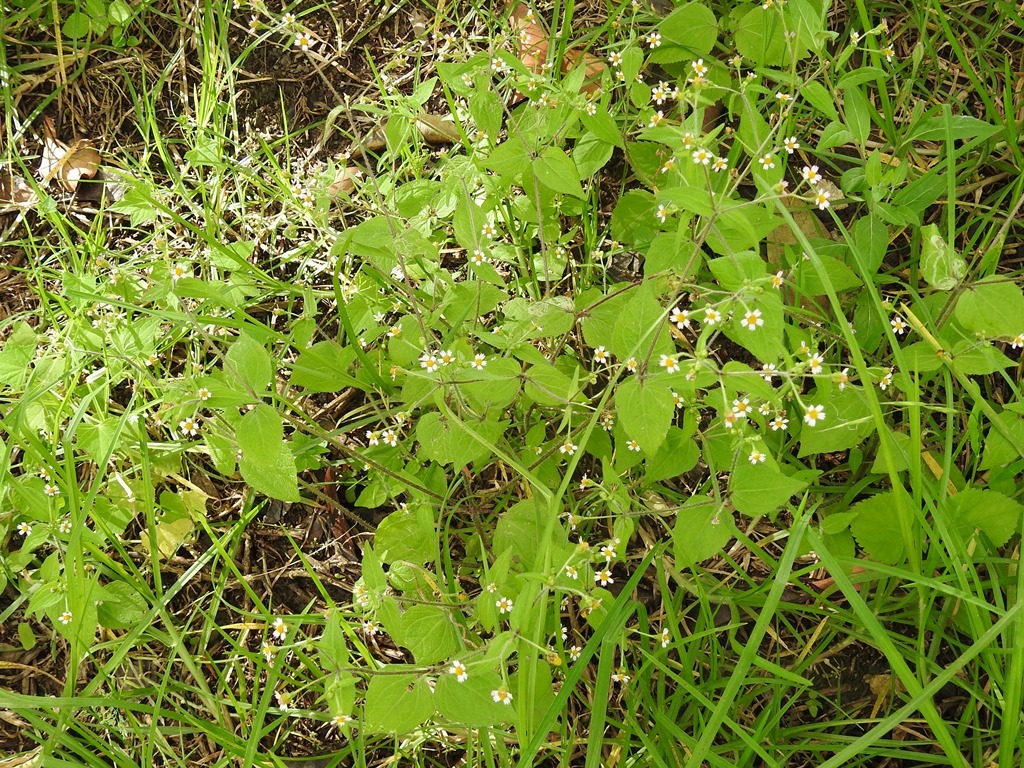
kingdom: Plantae
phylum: Tracheophyta
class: Magnoliopsida
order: Asterales
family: Asteraceae
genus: Galinsoga
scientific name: Galinsoga quadriradiata
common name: Shaggy soldier
